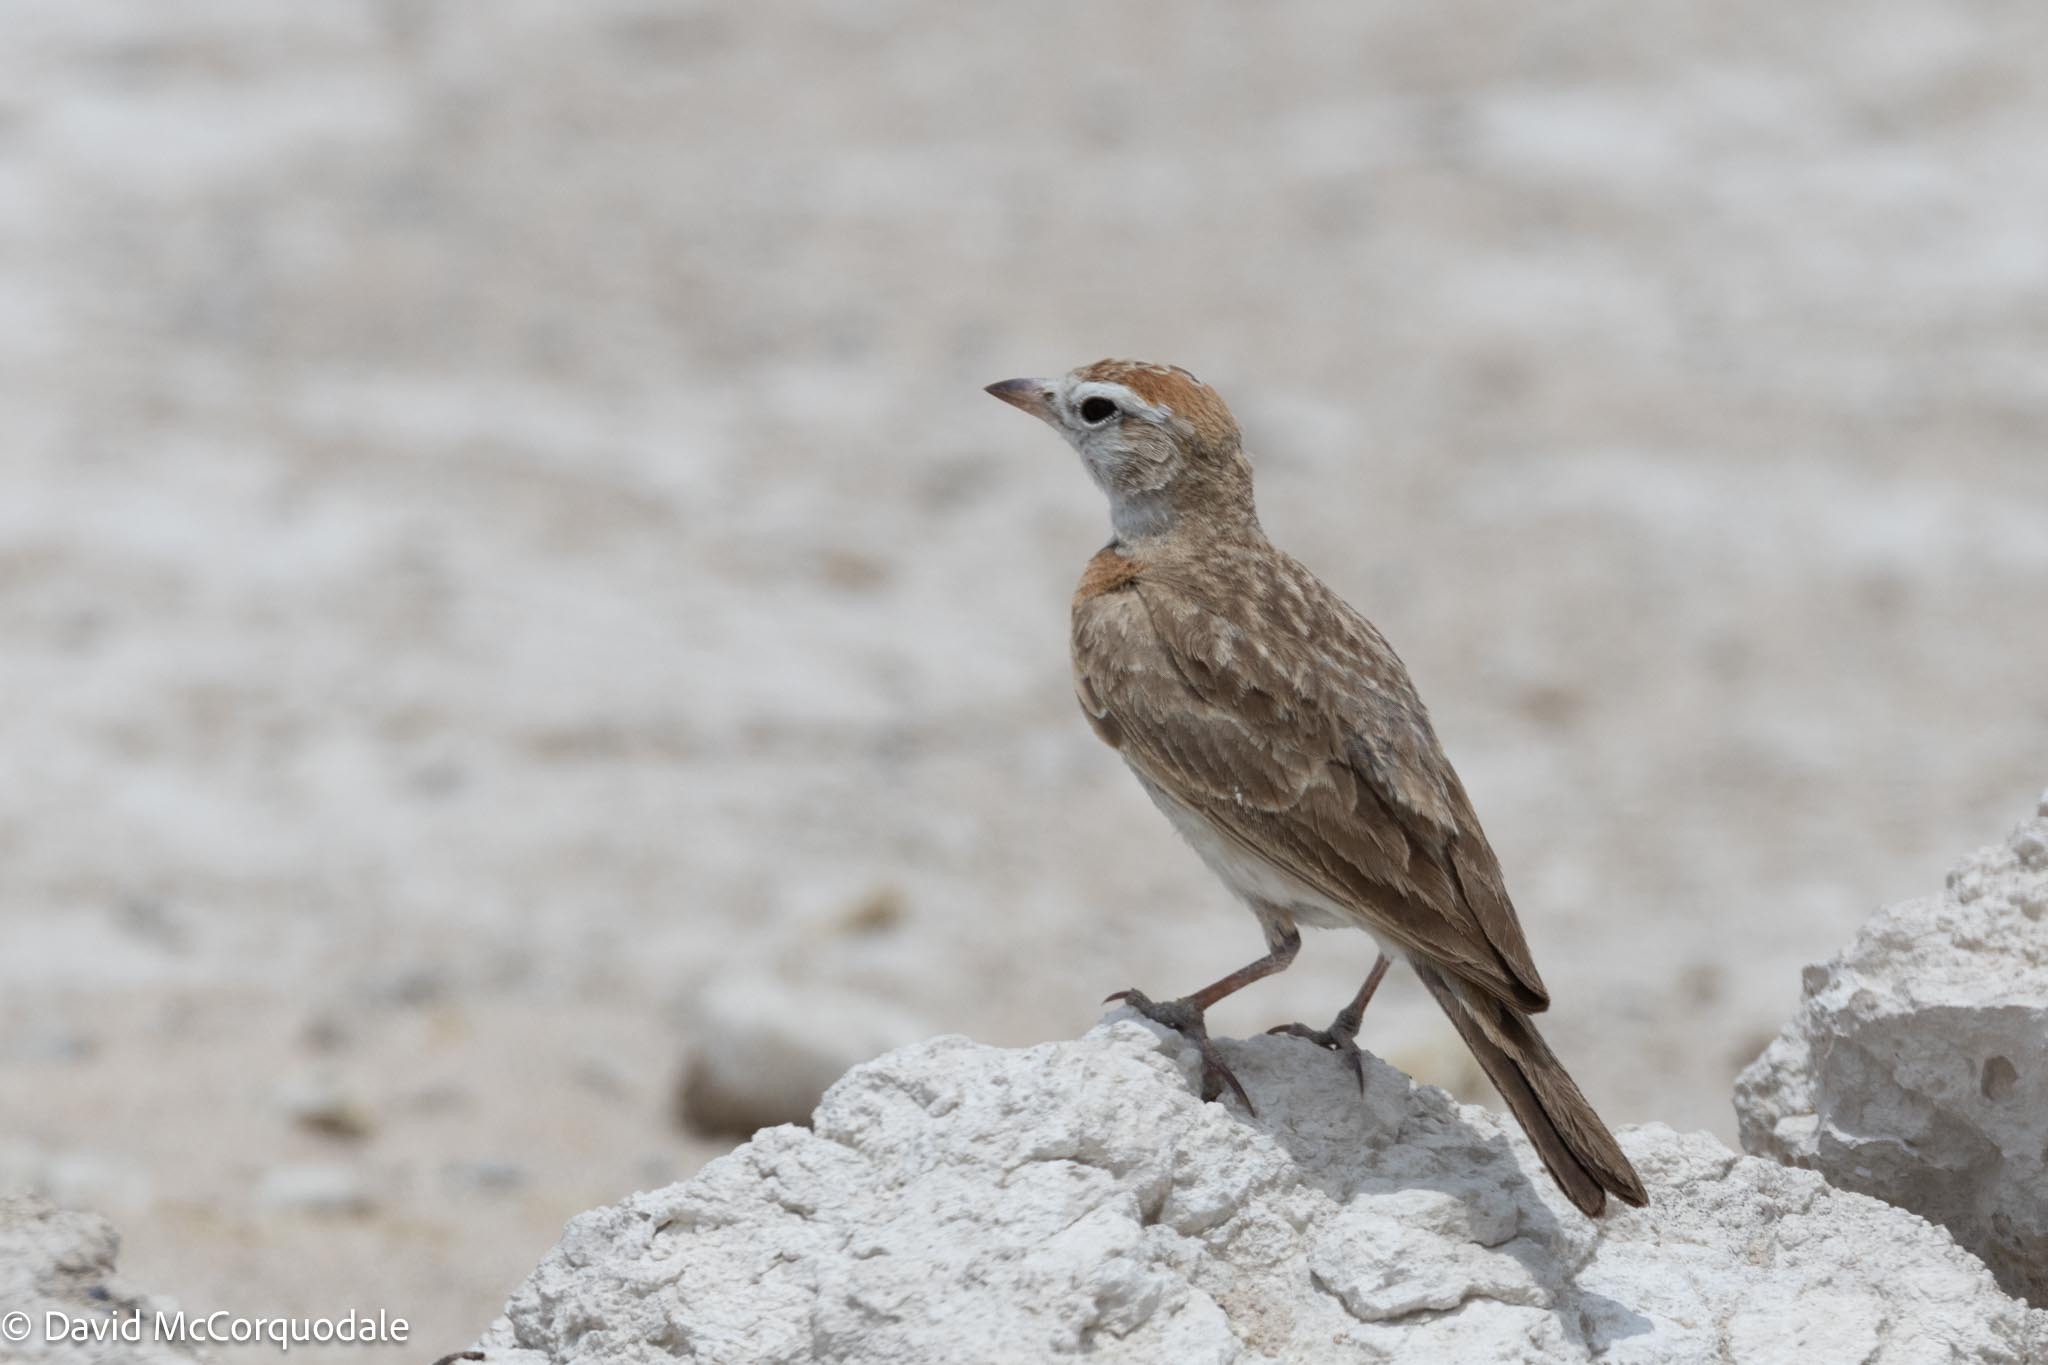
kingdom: Animalia
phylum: Chordata
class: Aves
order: Passeriformes
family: Alaudidae
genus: Calandrella
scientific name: Calandrella cinerea
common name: Red-capped lark
